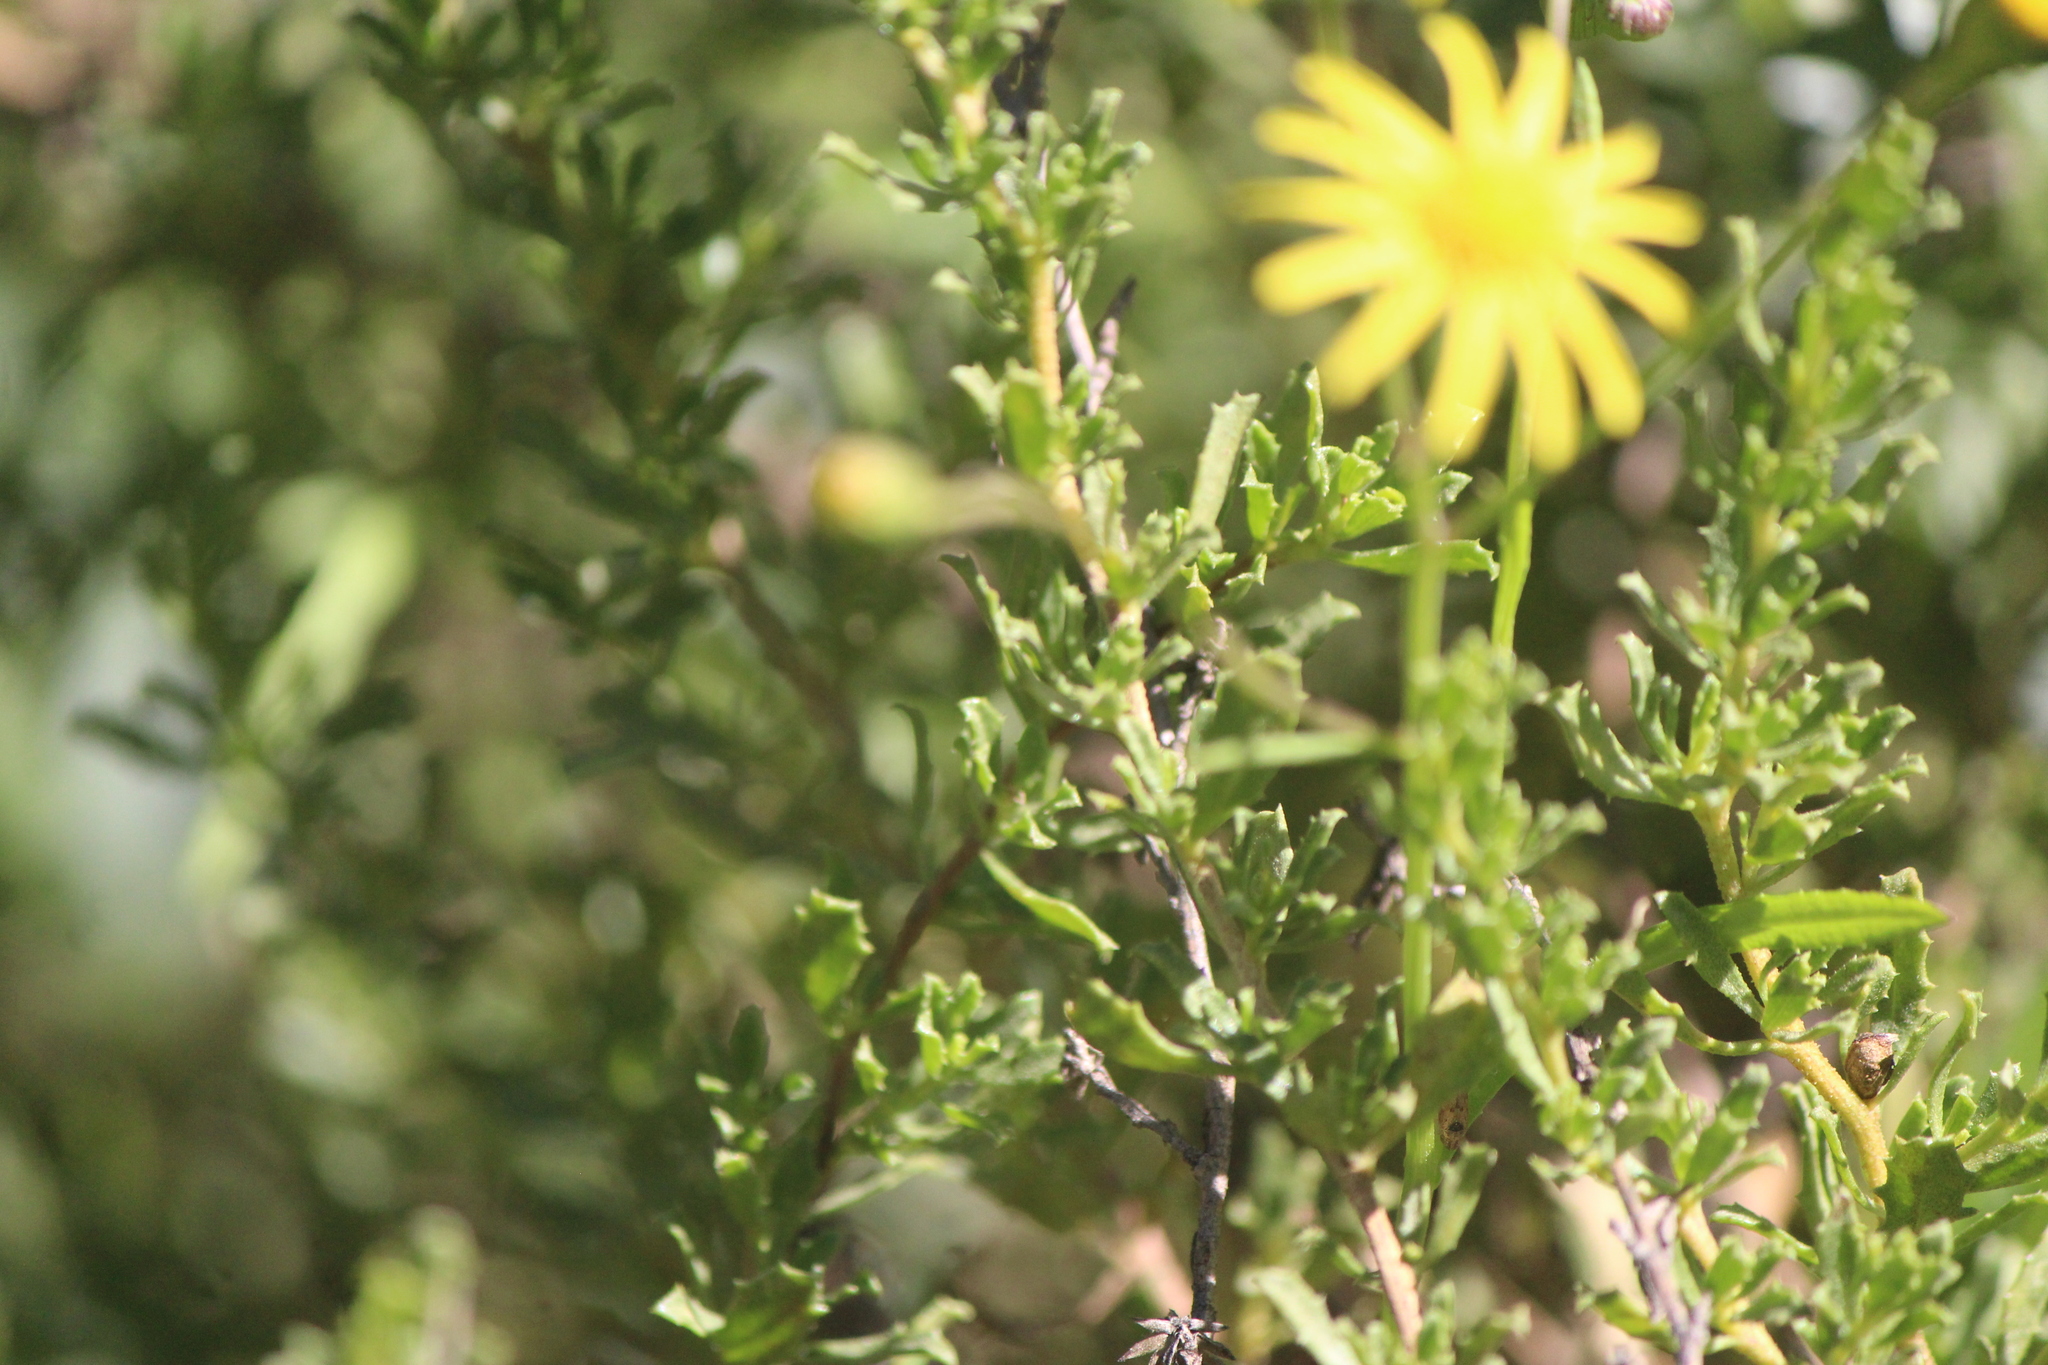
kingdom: Plantae
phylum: Tracheophyta
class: Magnoliopsida
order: Asterales
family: Asteraceae
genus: Senecio
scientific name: Senecio inaequidens
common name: Narrow-leaved ragwort
